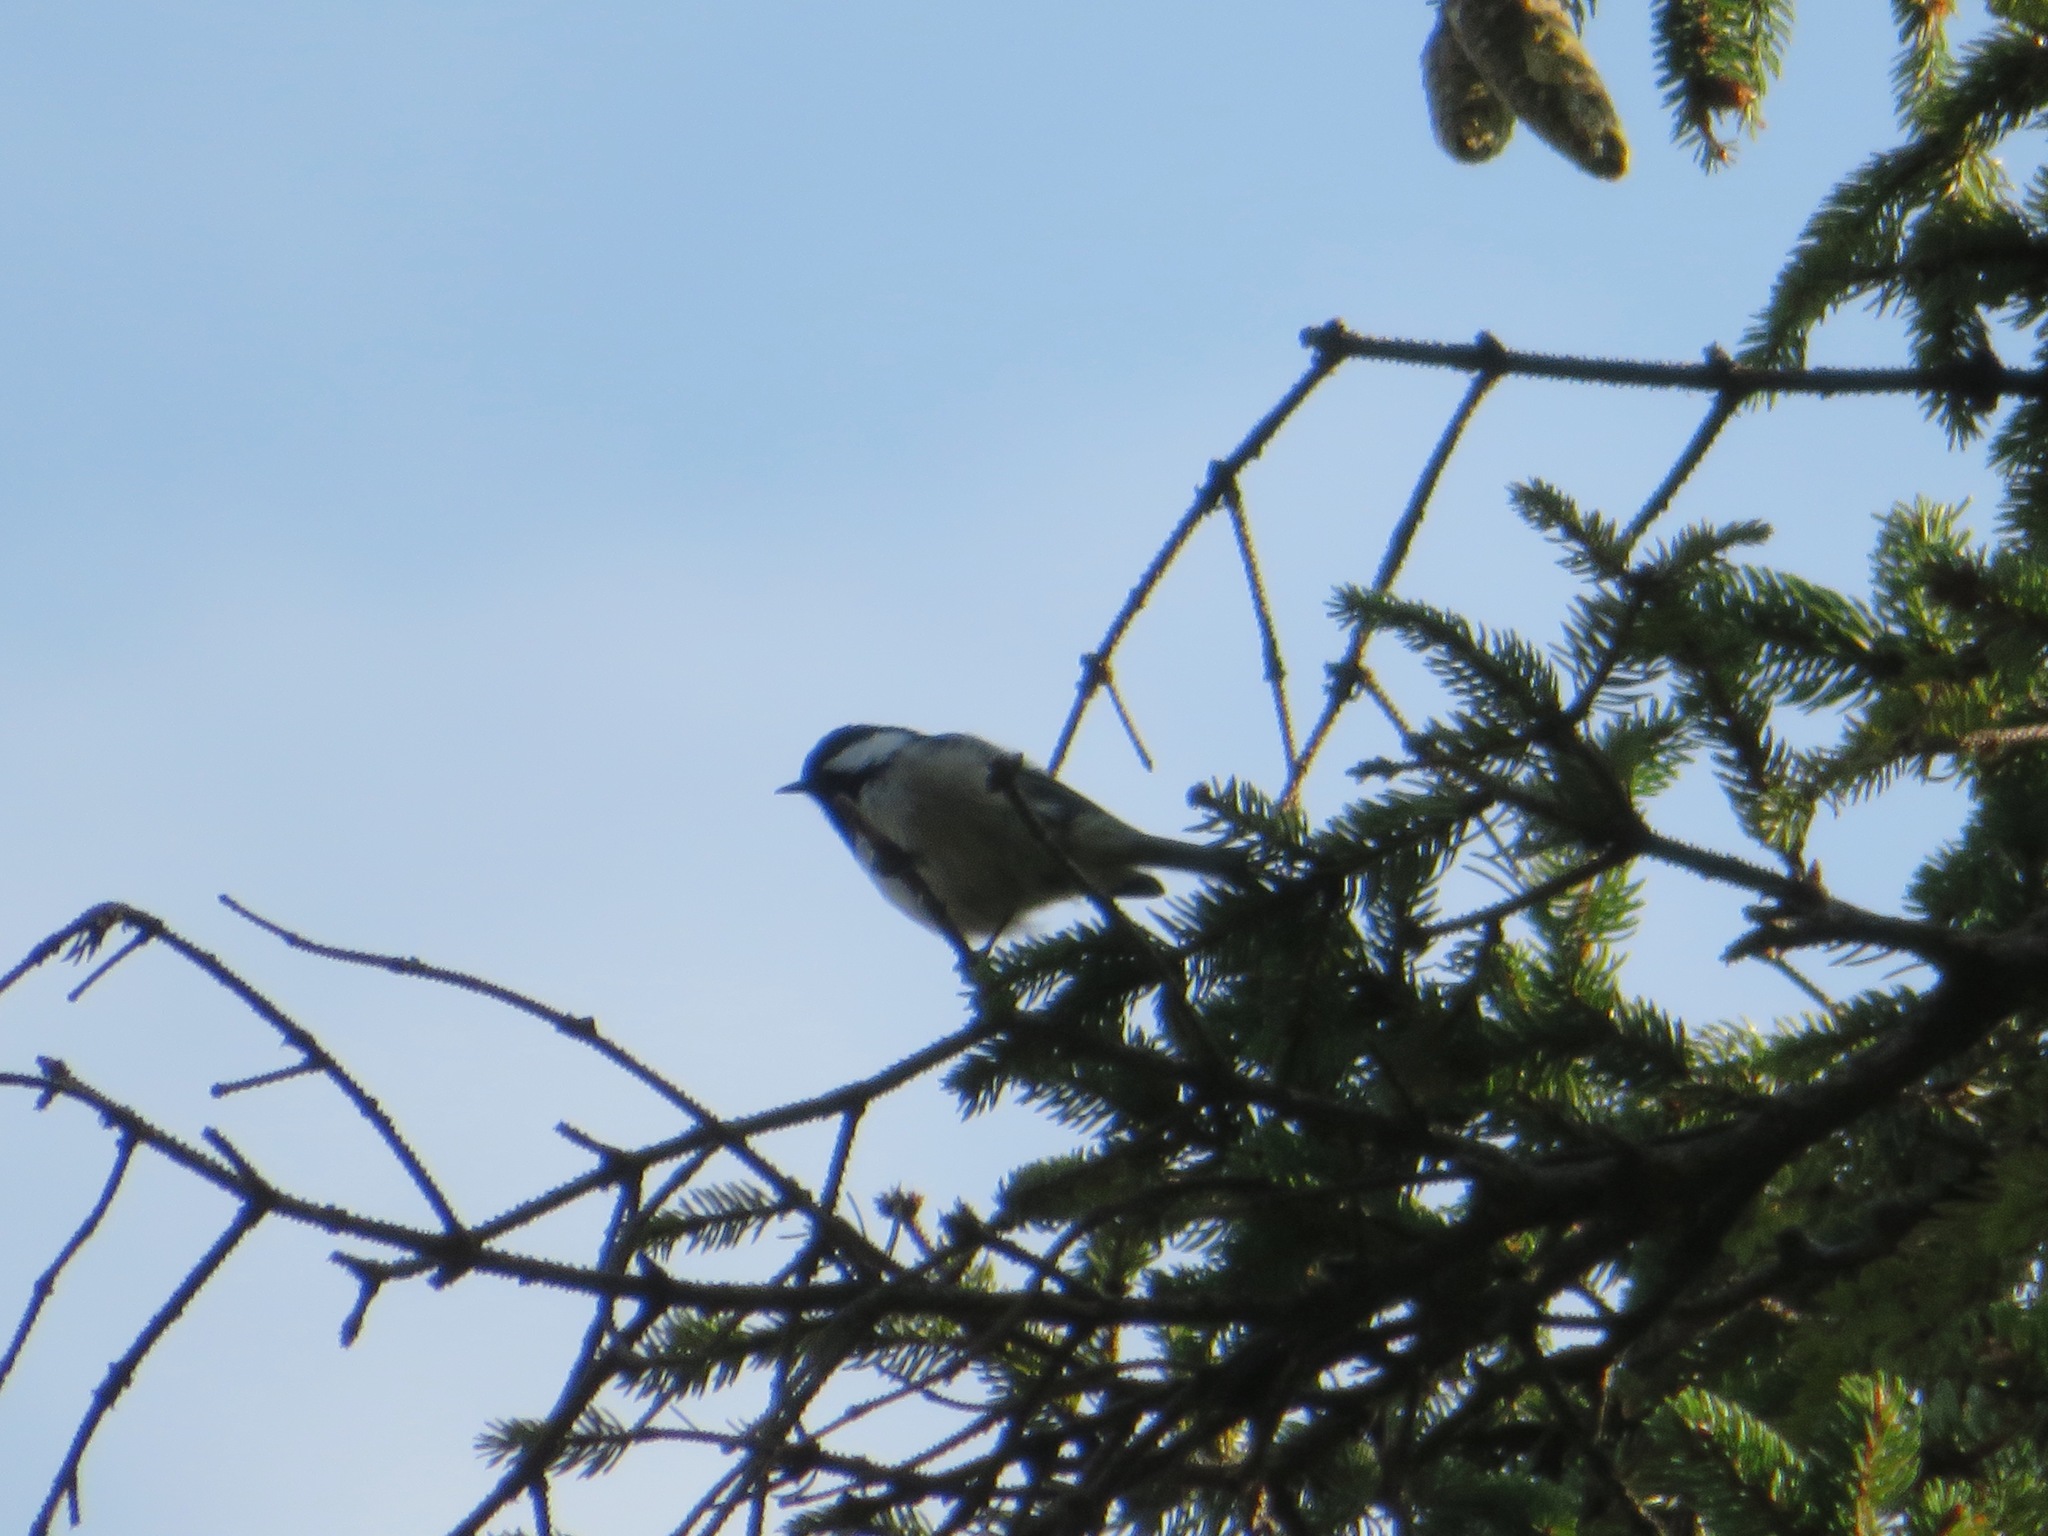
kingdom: Animalia
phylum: Chordata
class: Aves
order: Passeriformes
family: Paridae
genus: Periparus
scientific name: Periparus ater
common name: Coal tit
